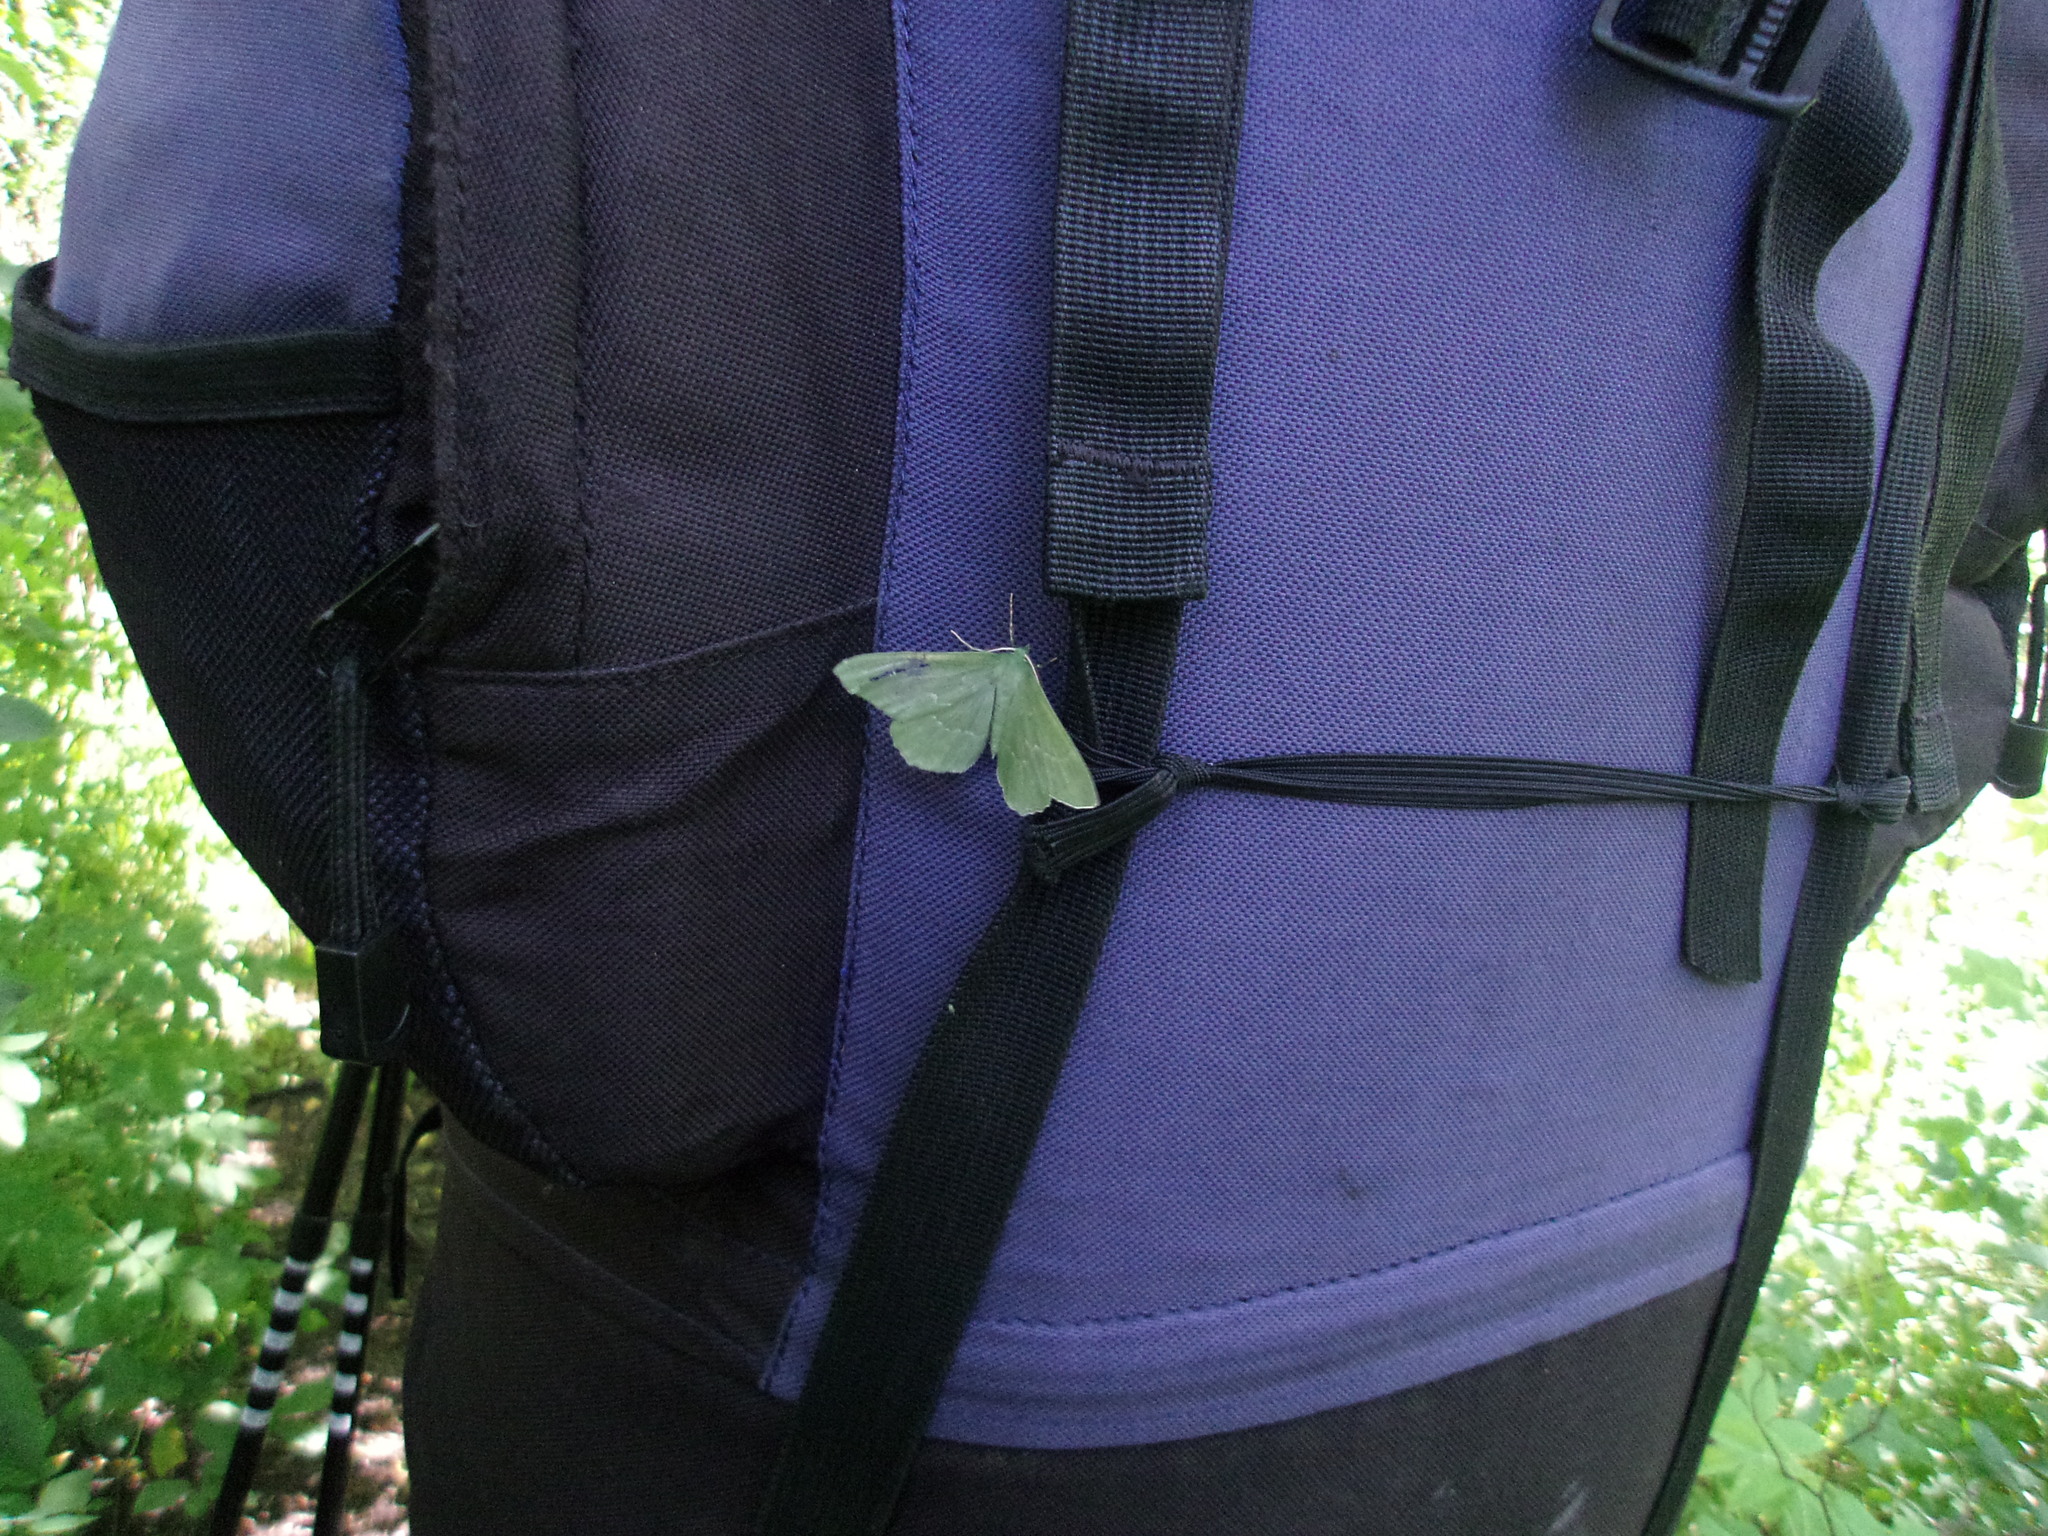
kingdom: Animalia
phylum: Arthropoda
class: Insecta
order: Lepidoptera
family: Geometridae
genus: Geometra
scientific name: Geometra papilionaria
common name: Large emerald
